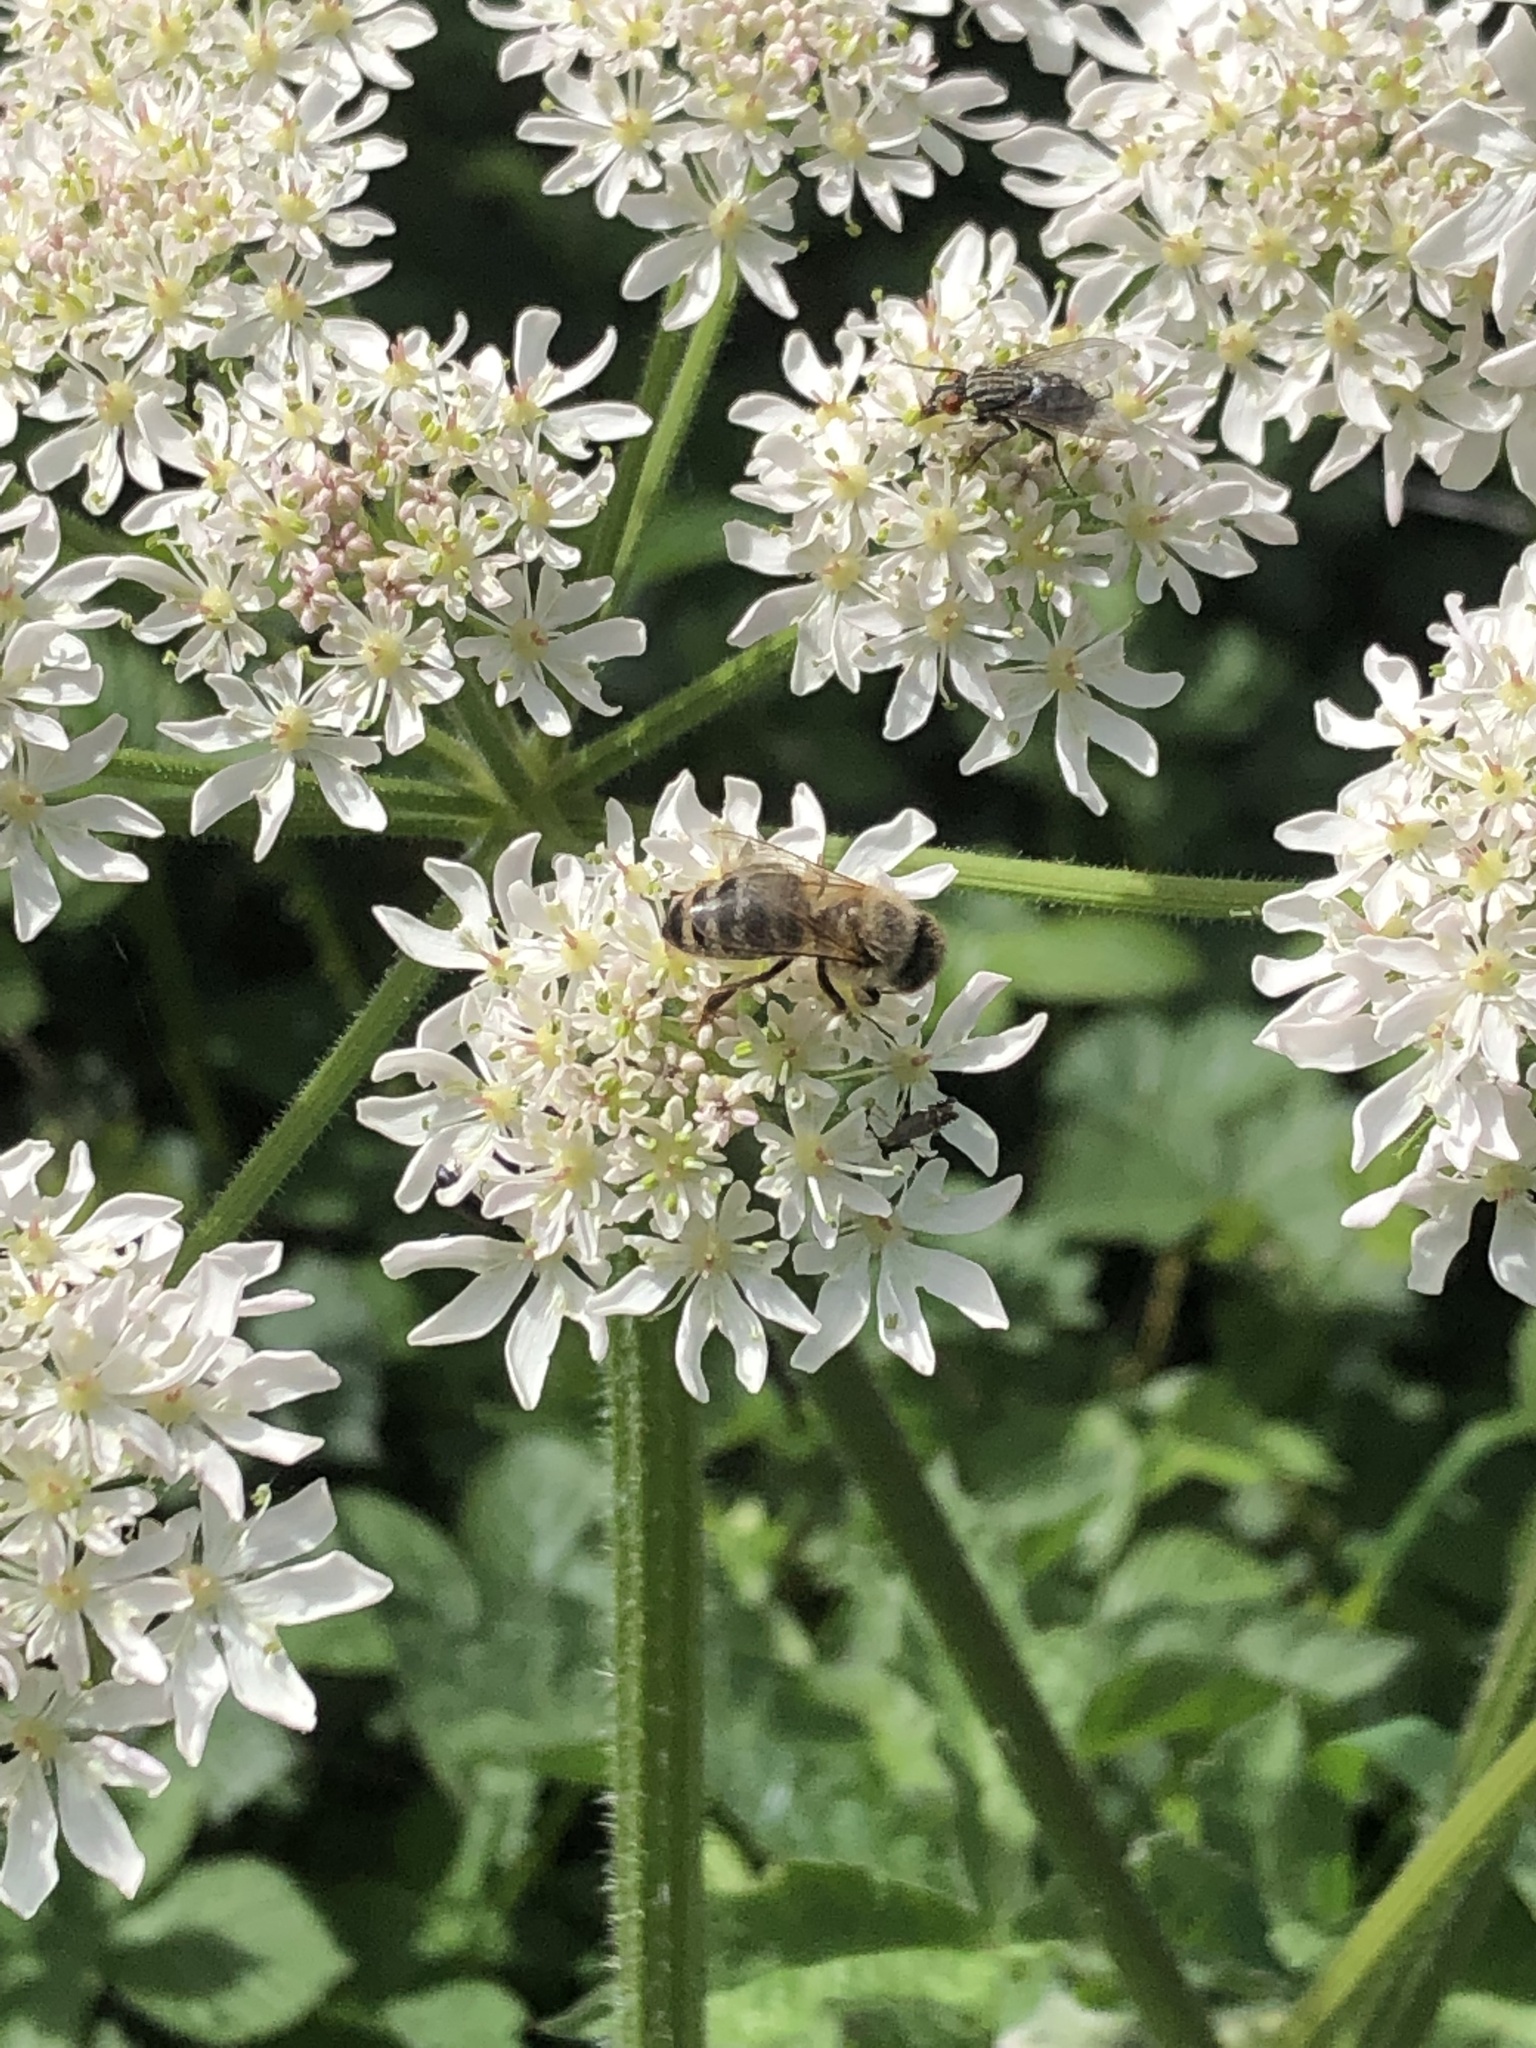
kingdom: Animalia
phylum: Arthropoda
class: Insecta
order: Hymenoptera
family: Apidae
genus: Apis
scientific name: Apis mellifera
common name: Honey bee
